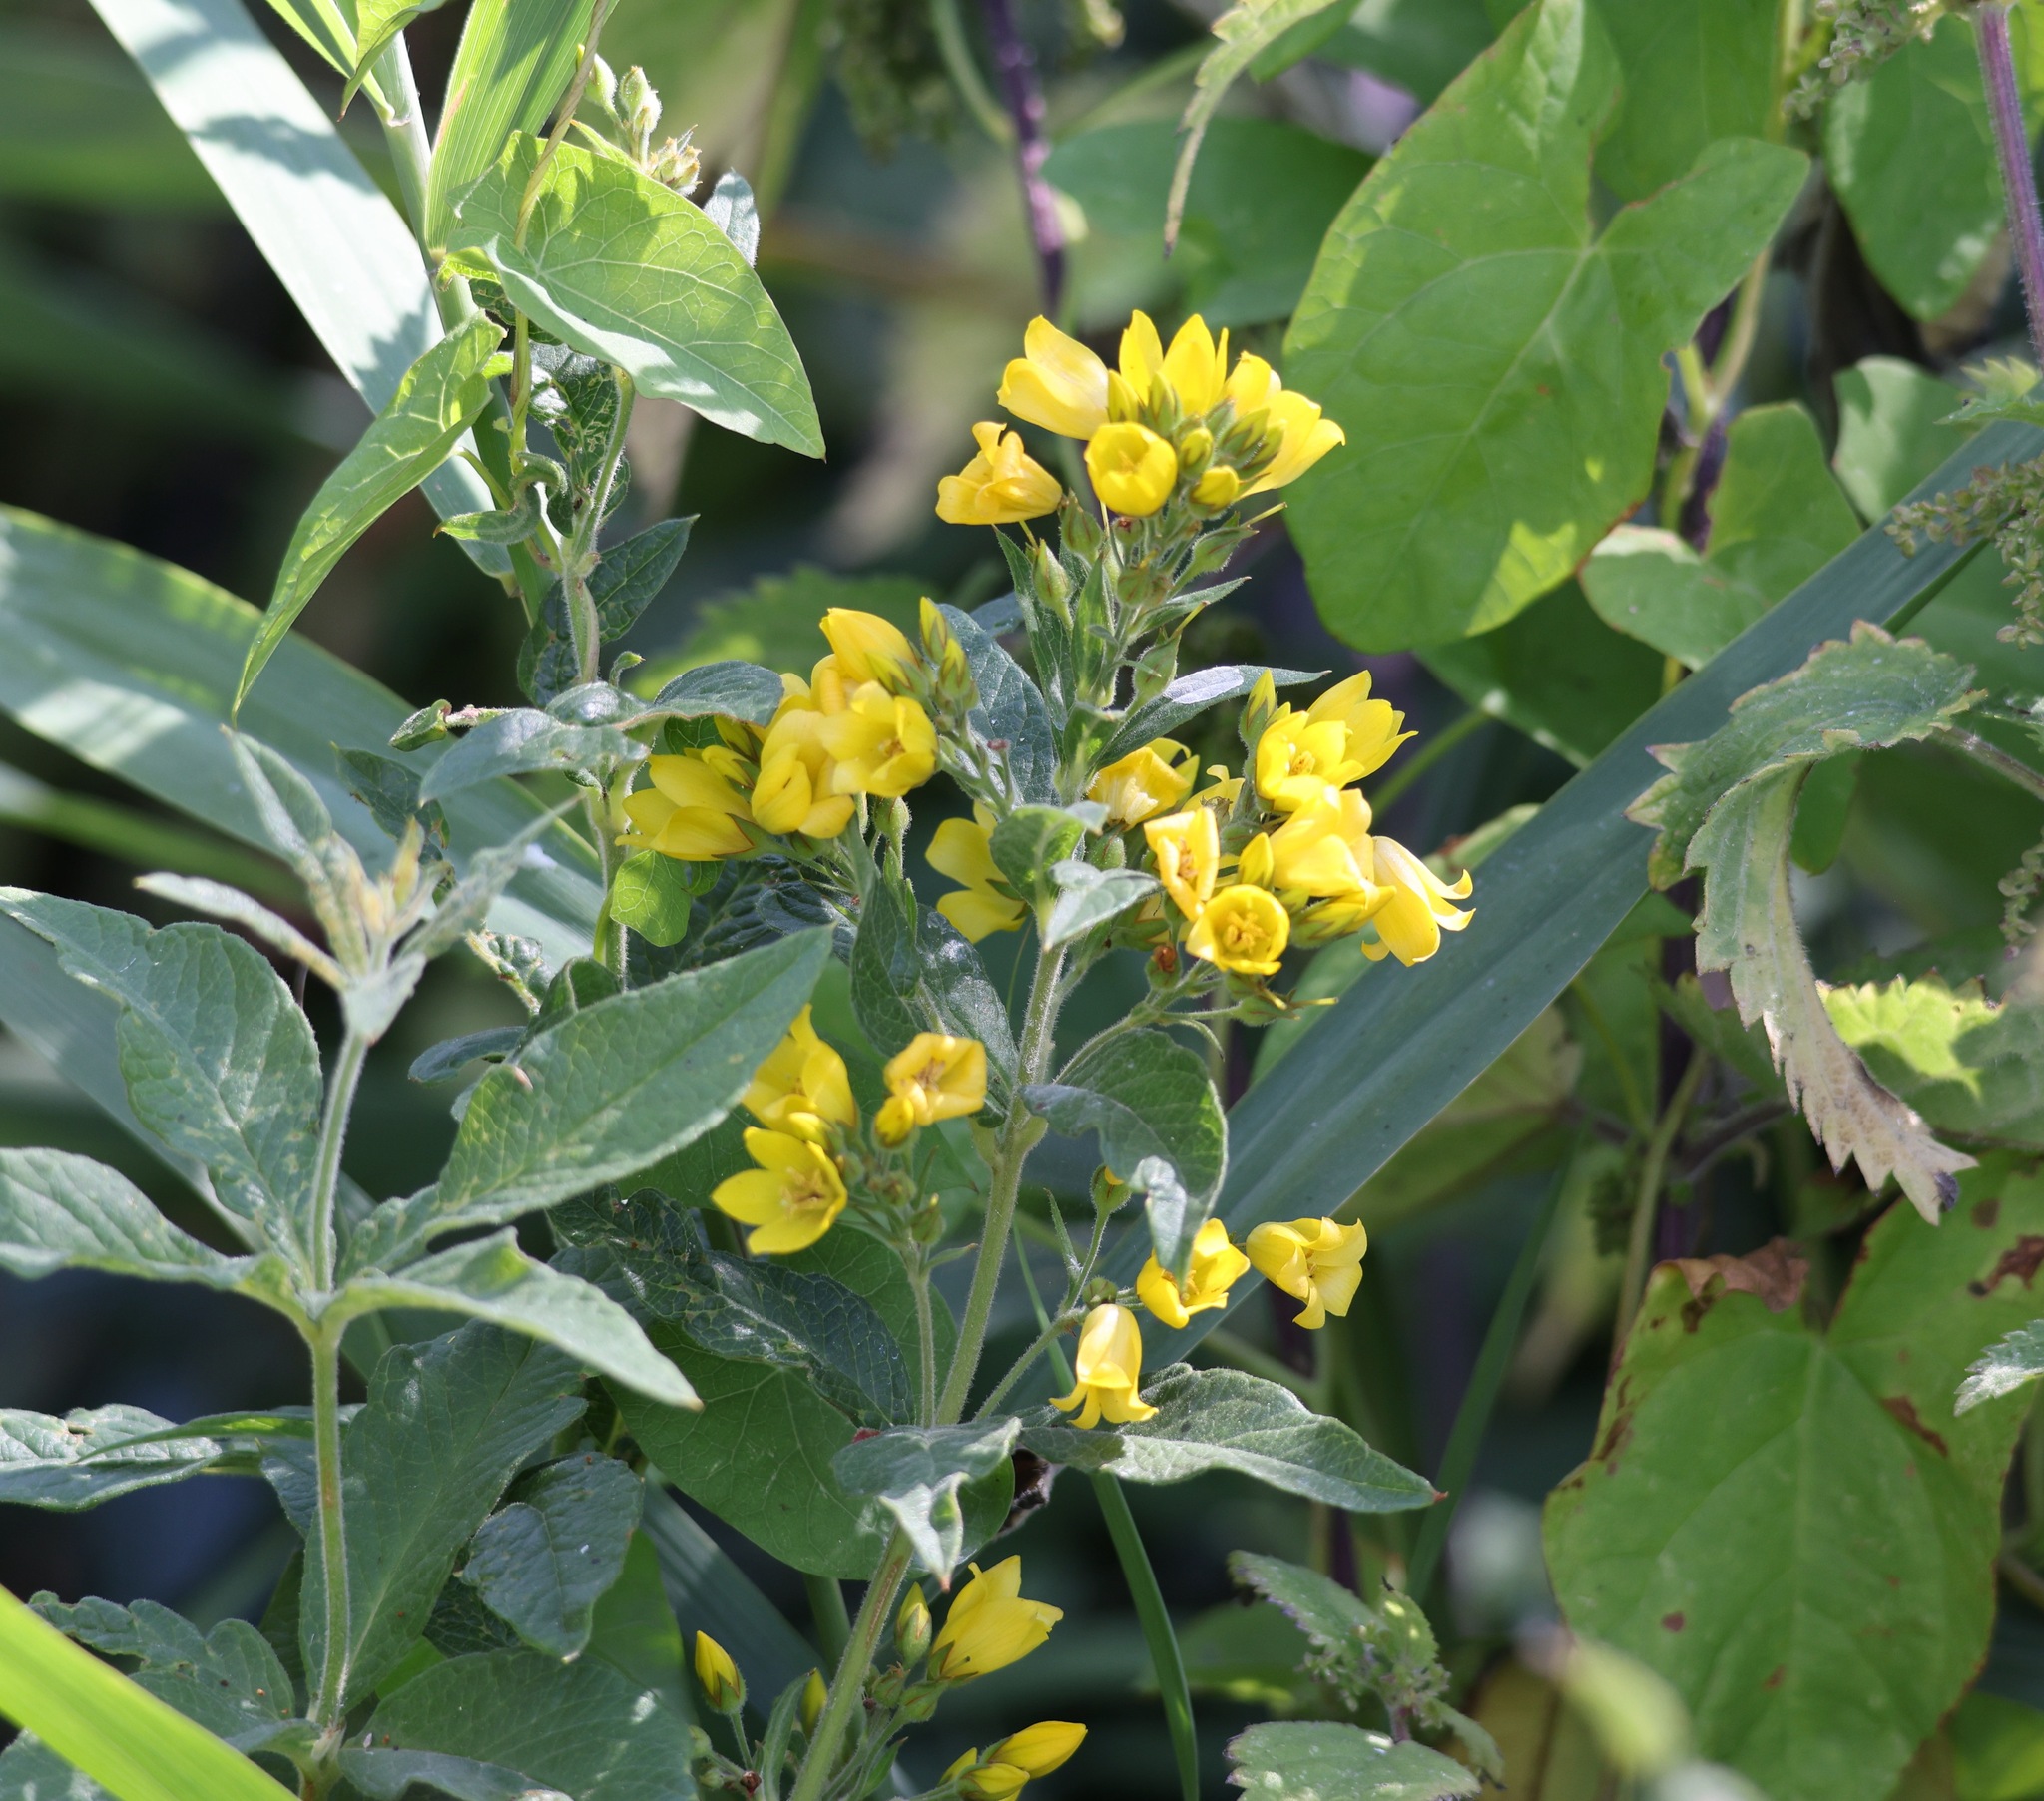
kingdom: Plantae
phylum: Tracheophyta
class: Magnoliopsida
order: Ericales
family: Primulaceae
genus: Lysimachia
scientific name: Lysimachia vulgaris
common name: Yellow loosestrife
